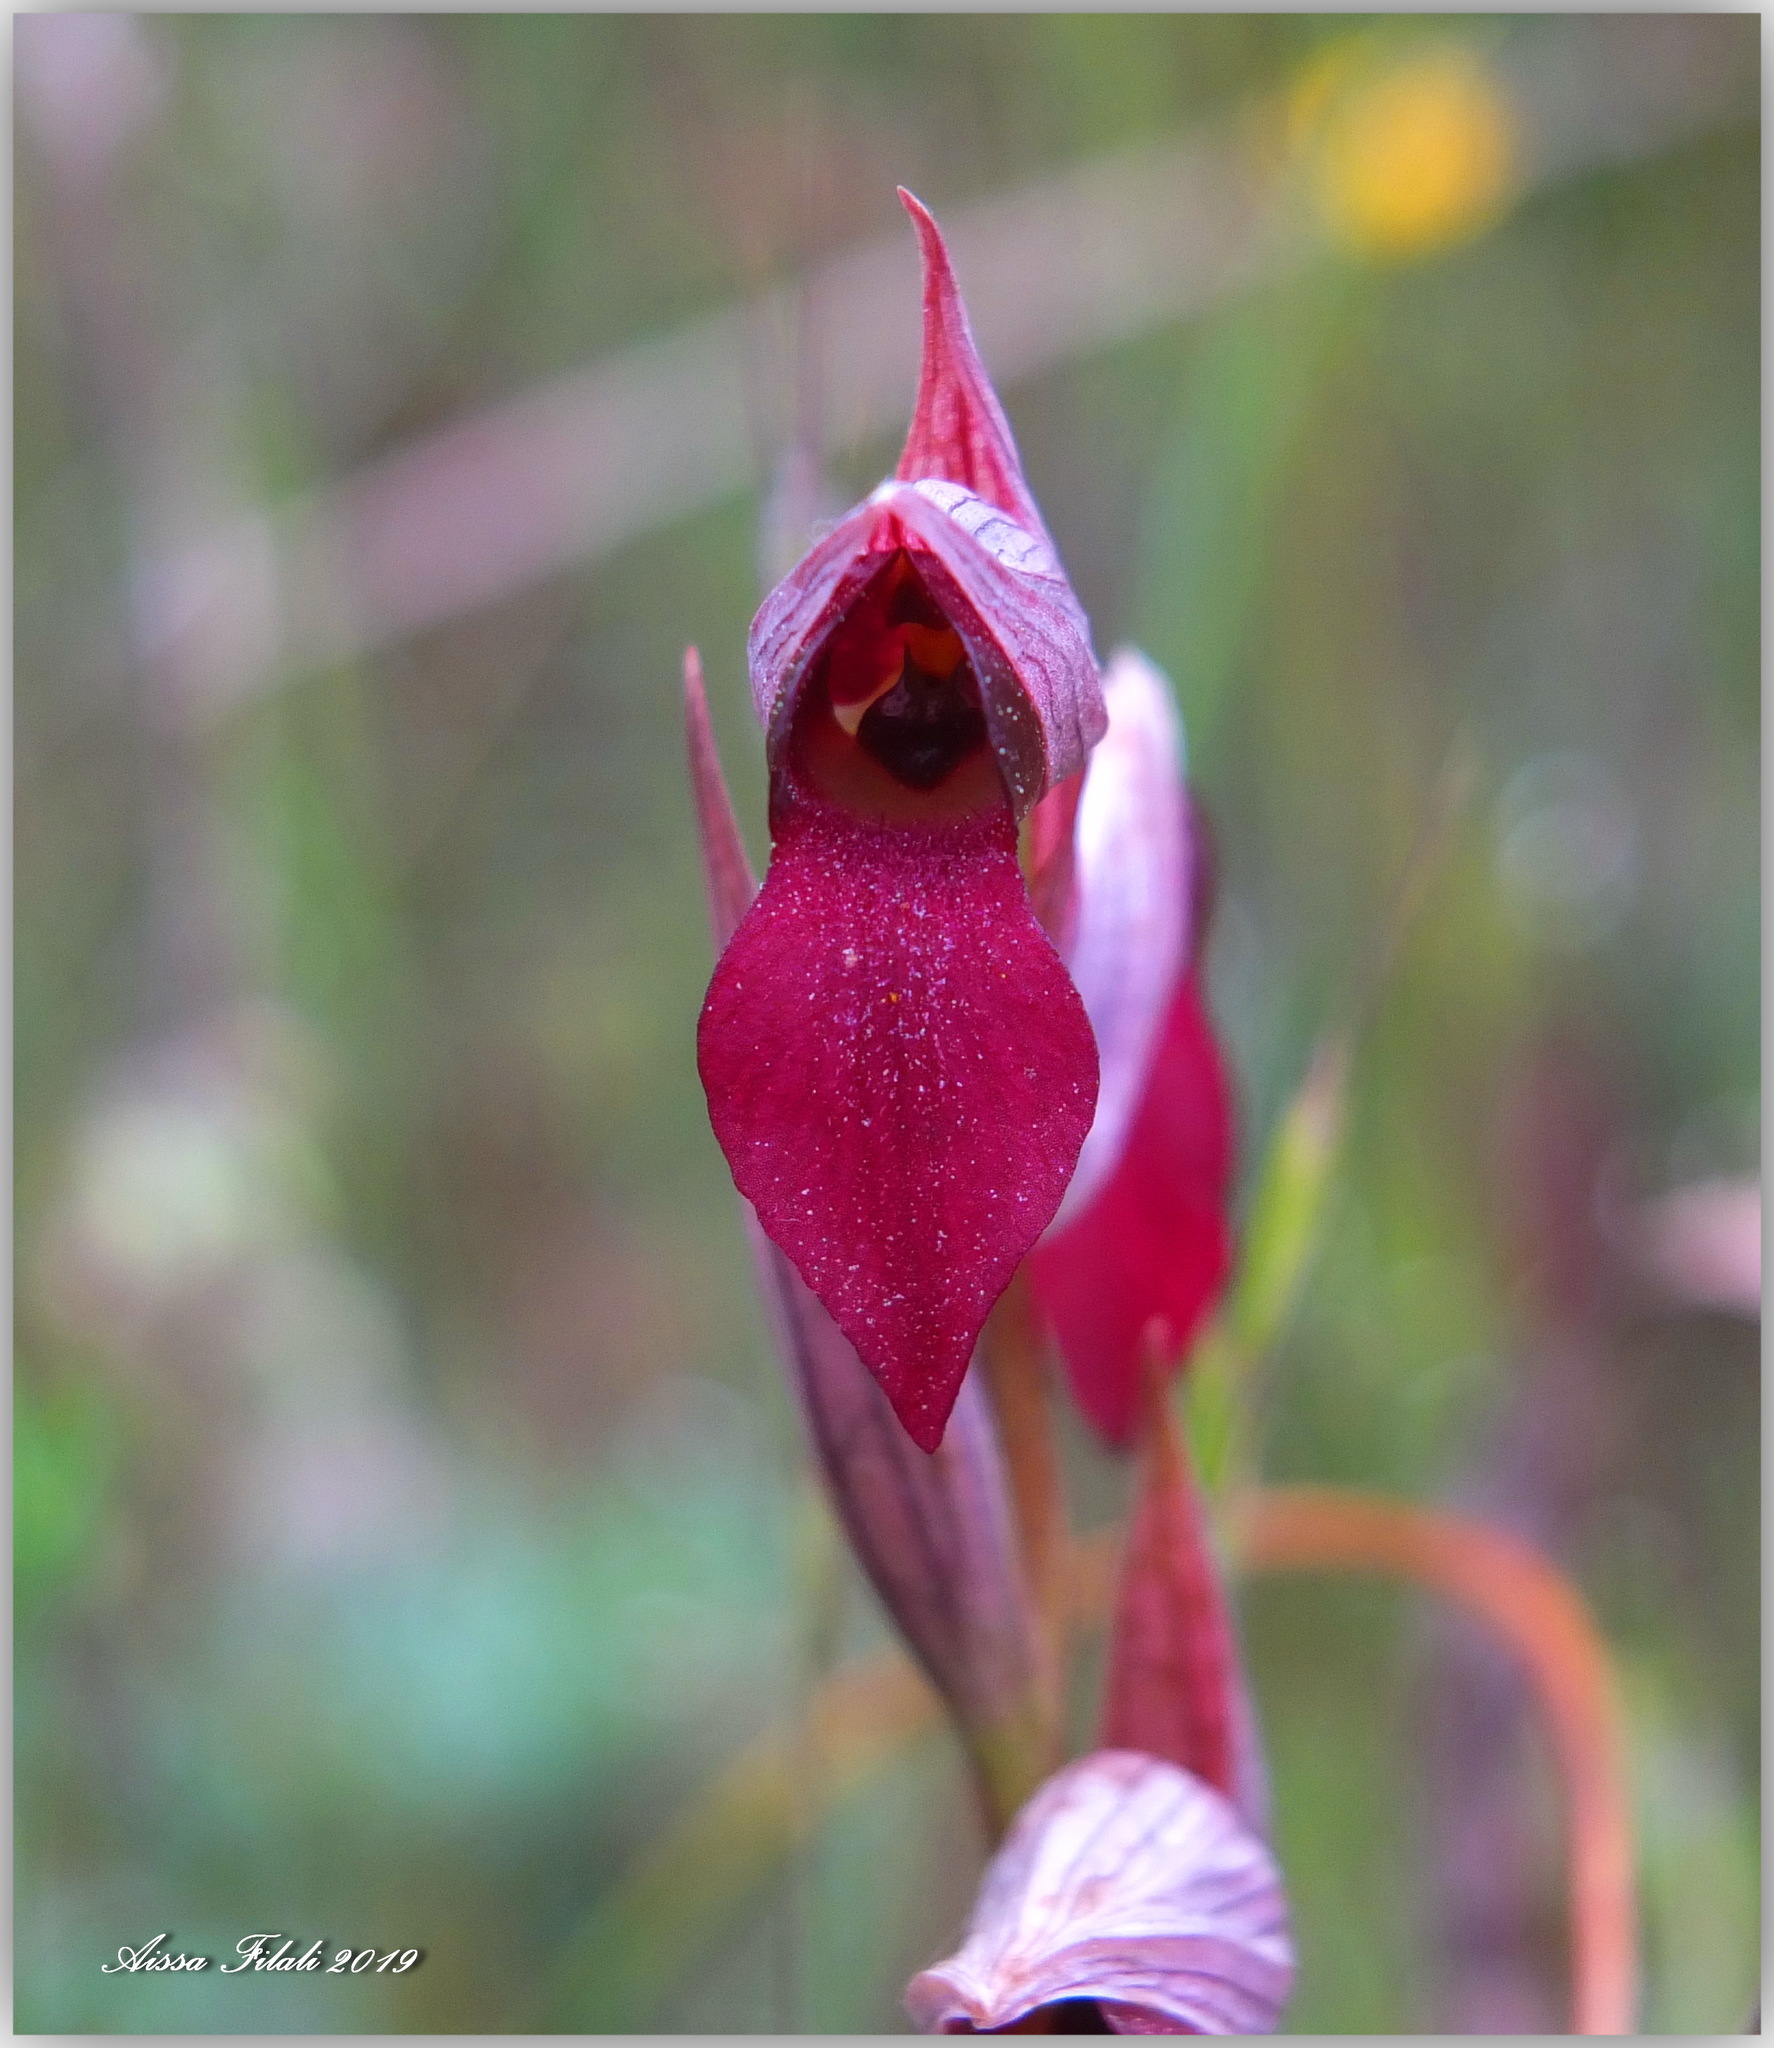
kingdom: Plantae
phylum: Tracheophyta
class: Liliopsida
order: Asparagales
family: Orchidaceae
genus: Serapias
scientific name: Serapias lingua
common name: Tongue-orchid
